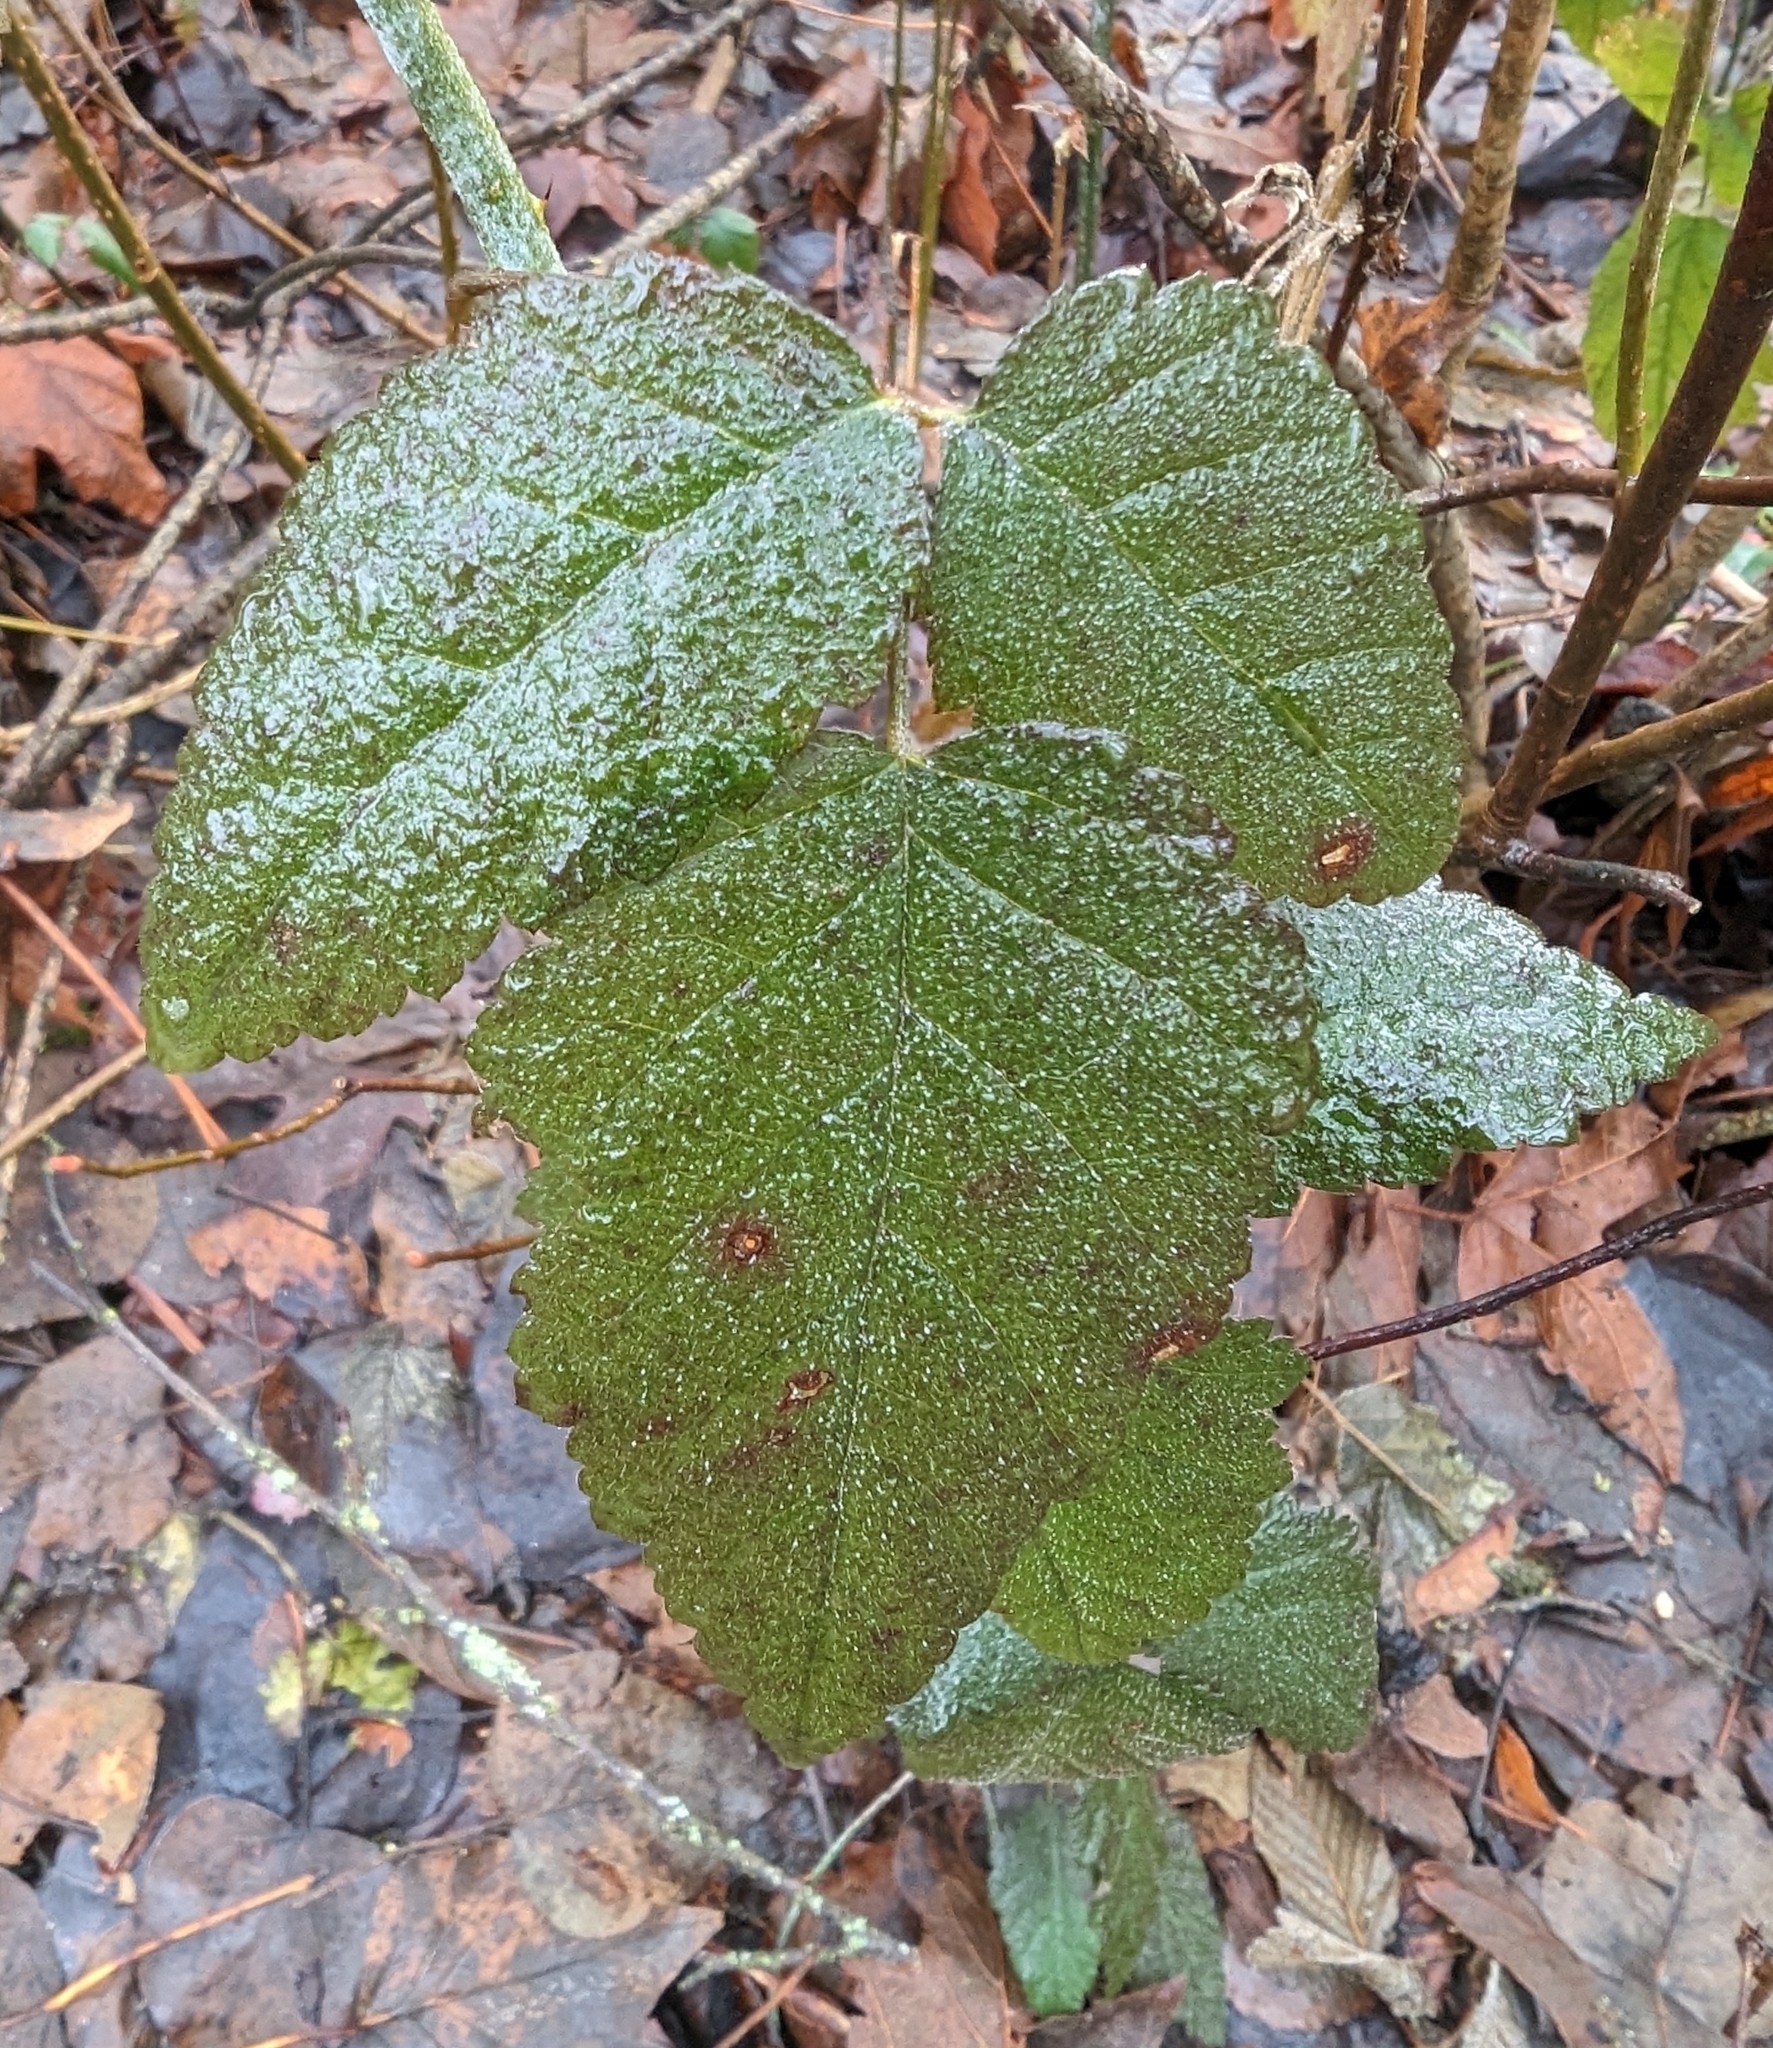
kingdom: Plantae
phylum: Tracheophyta
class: Magnoliopsida
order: Rosales
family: Rosaceae
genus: Rubus
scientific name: Rubus ursinus
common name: Pacific blackberry
